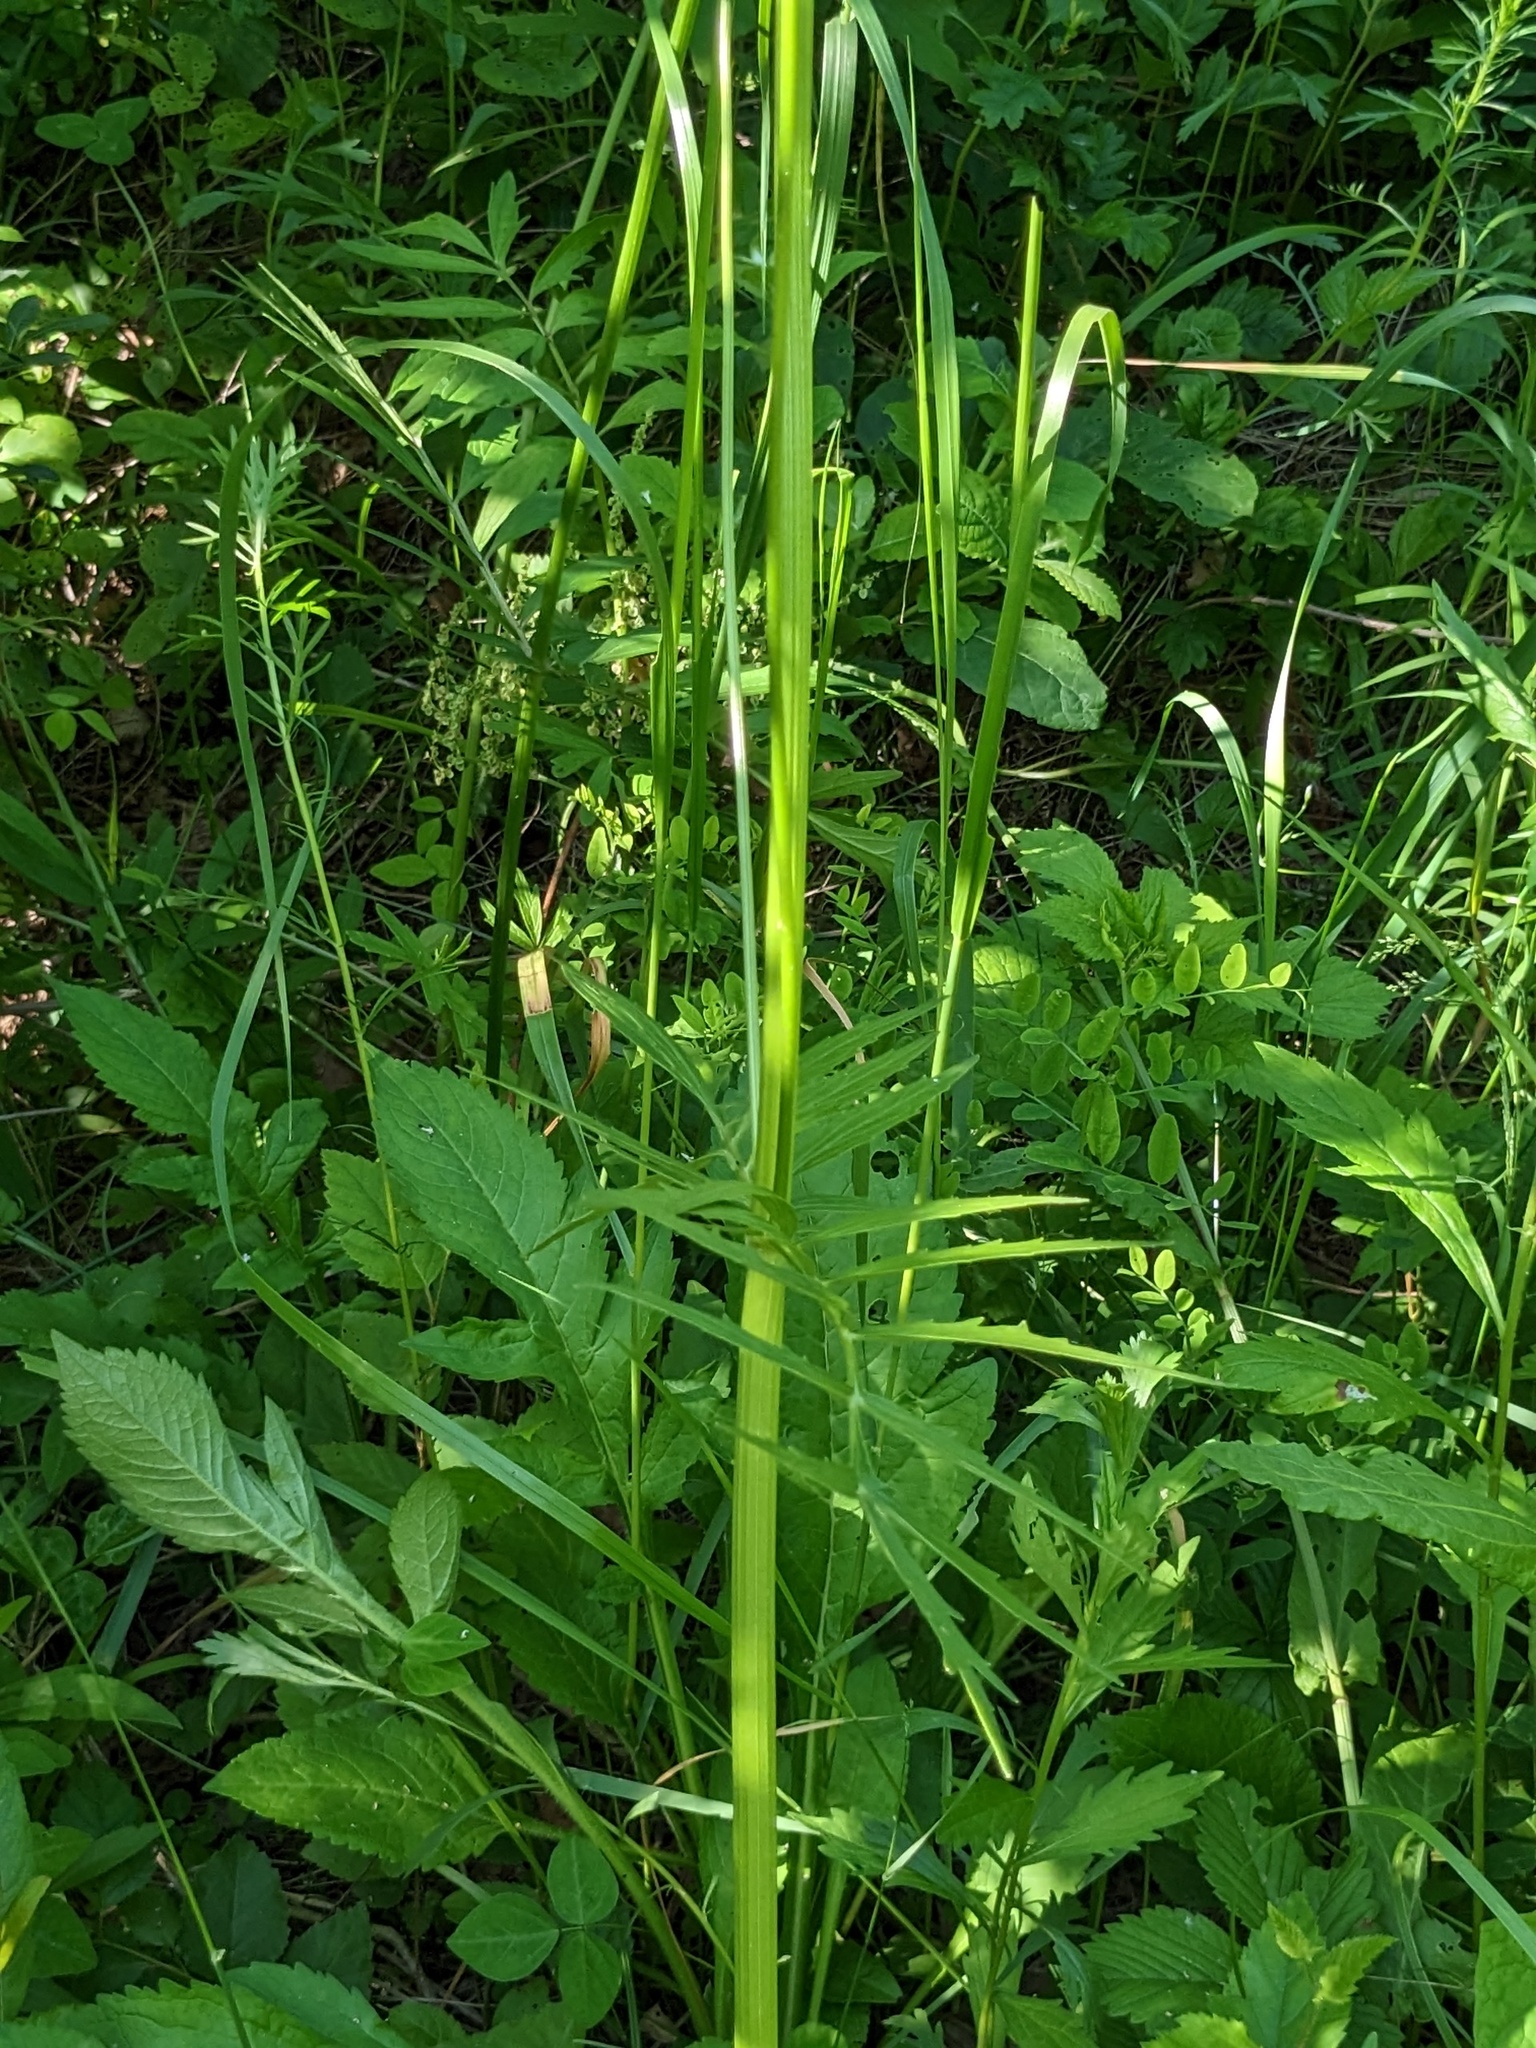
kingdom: Plantae
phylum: Tracheophyta
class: Magnoliopsida
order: Dipsacales
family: Caprifoliaceae
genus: Valeriana
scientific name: Valeriana fauriei
